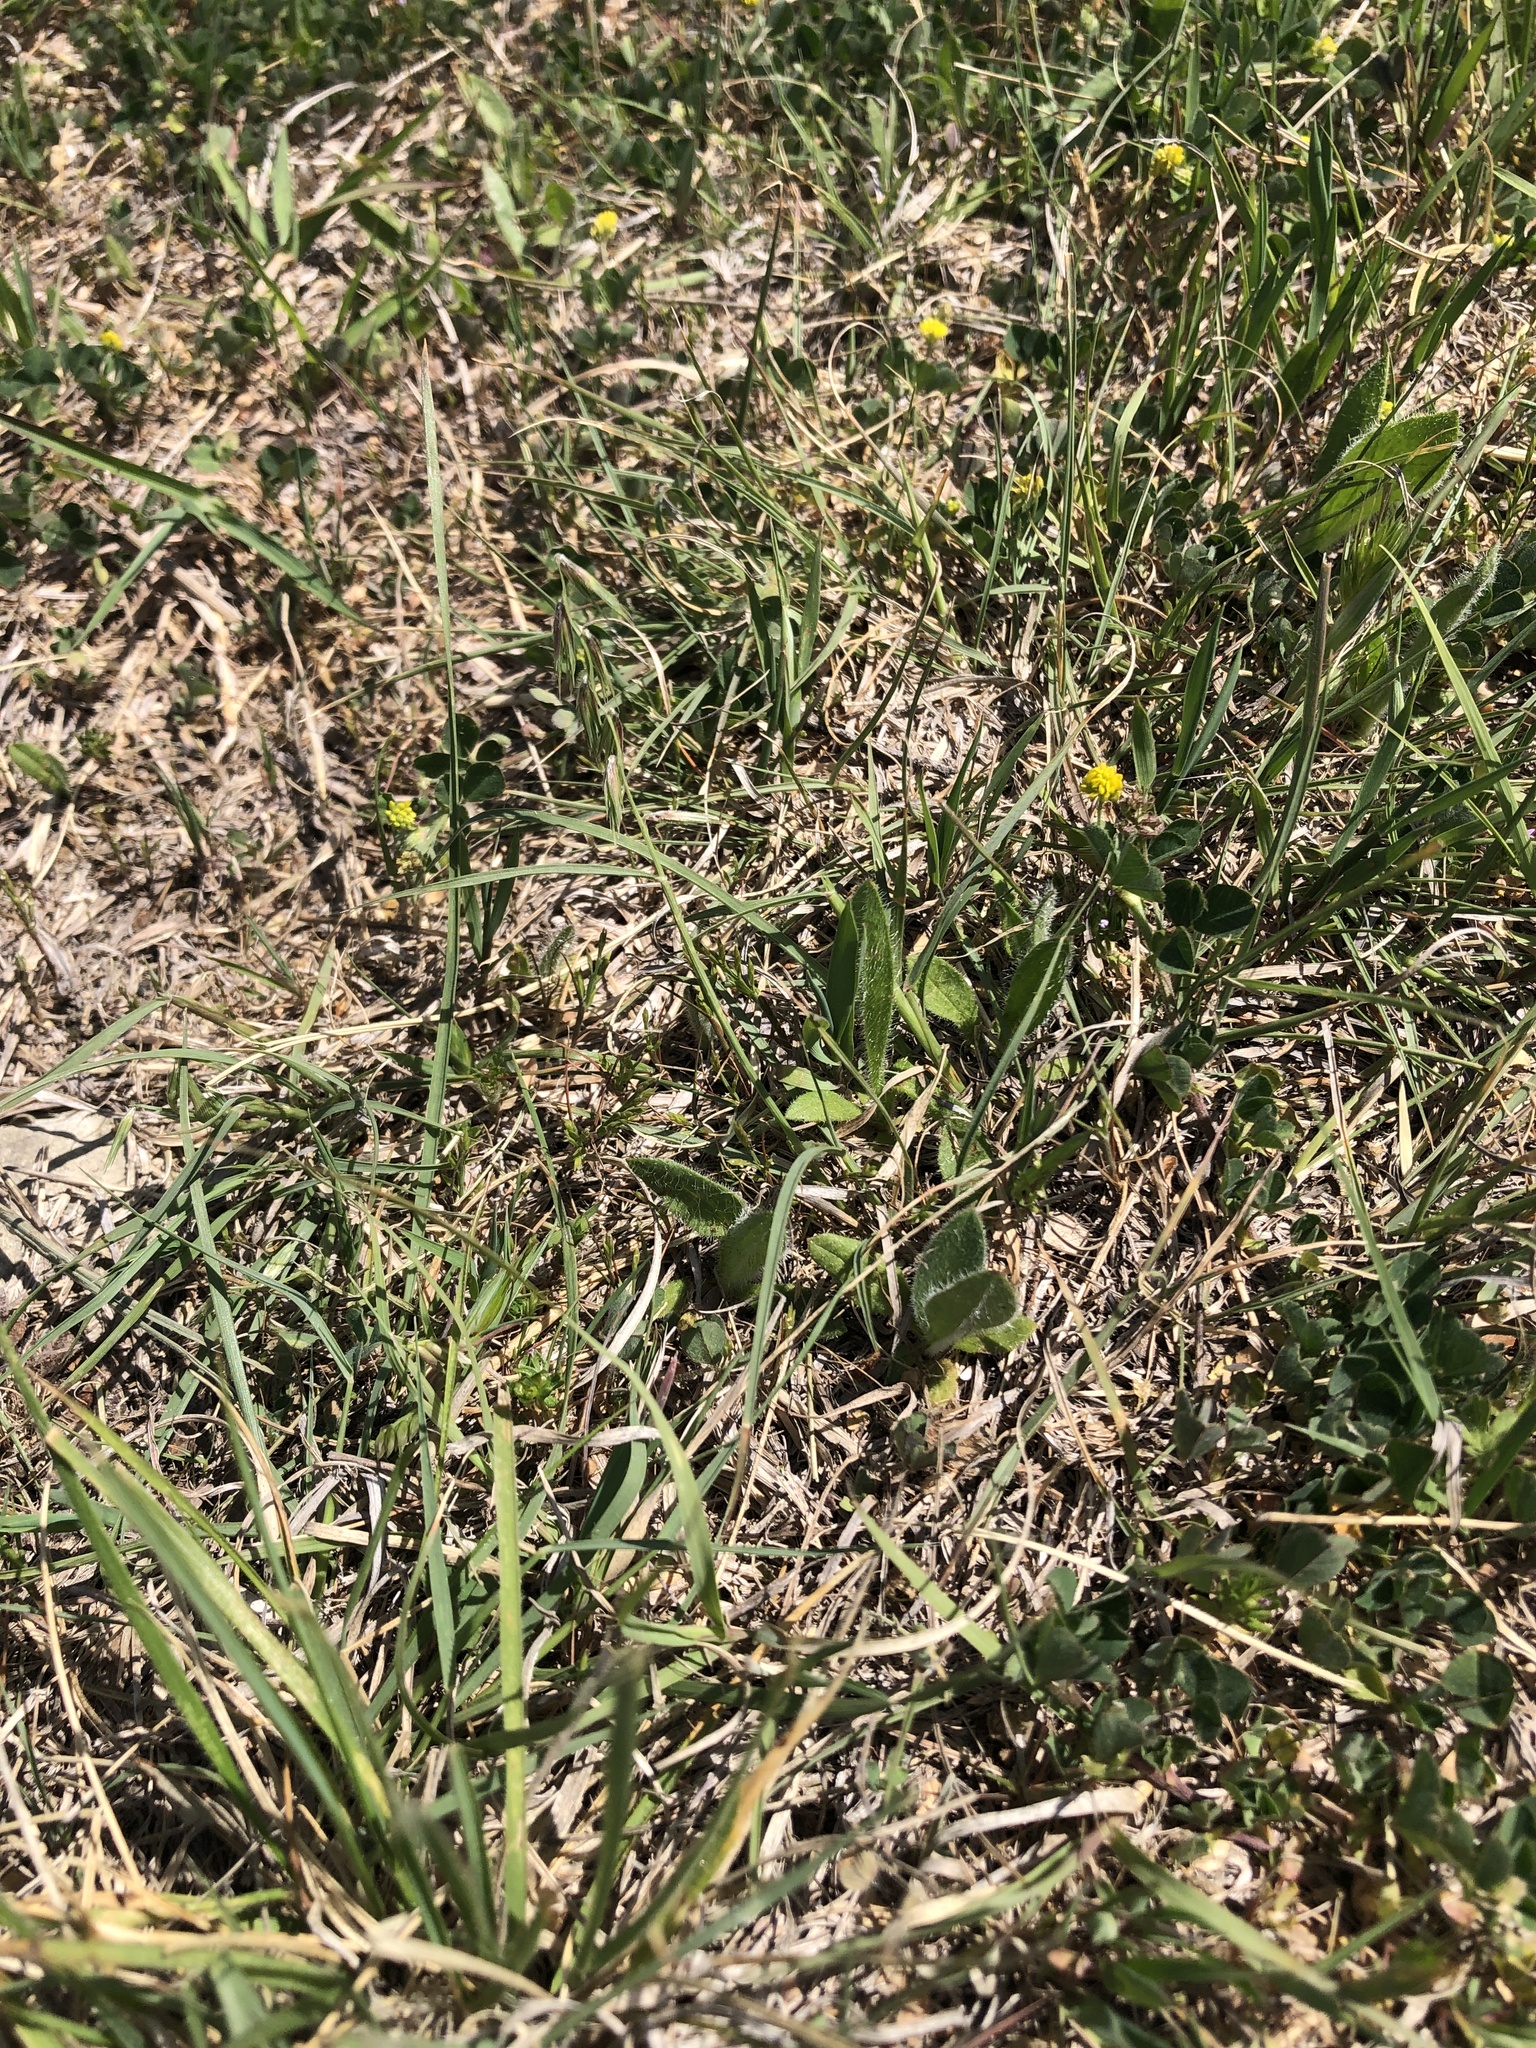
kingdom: Plantae
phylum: Tracheophyta
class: Liliopsida
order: Poales
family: Poaceae
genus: Bouteloua
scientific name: Bouteloua rigidiseta
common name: Texas grama
